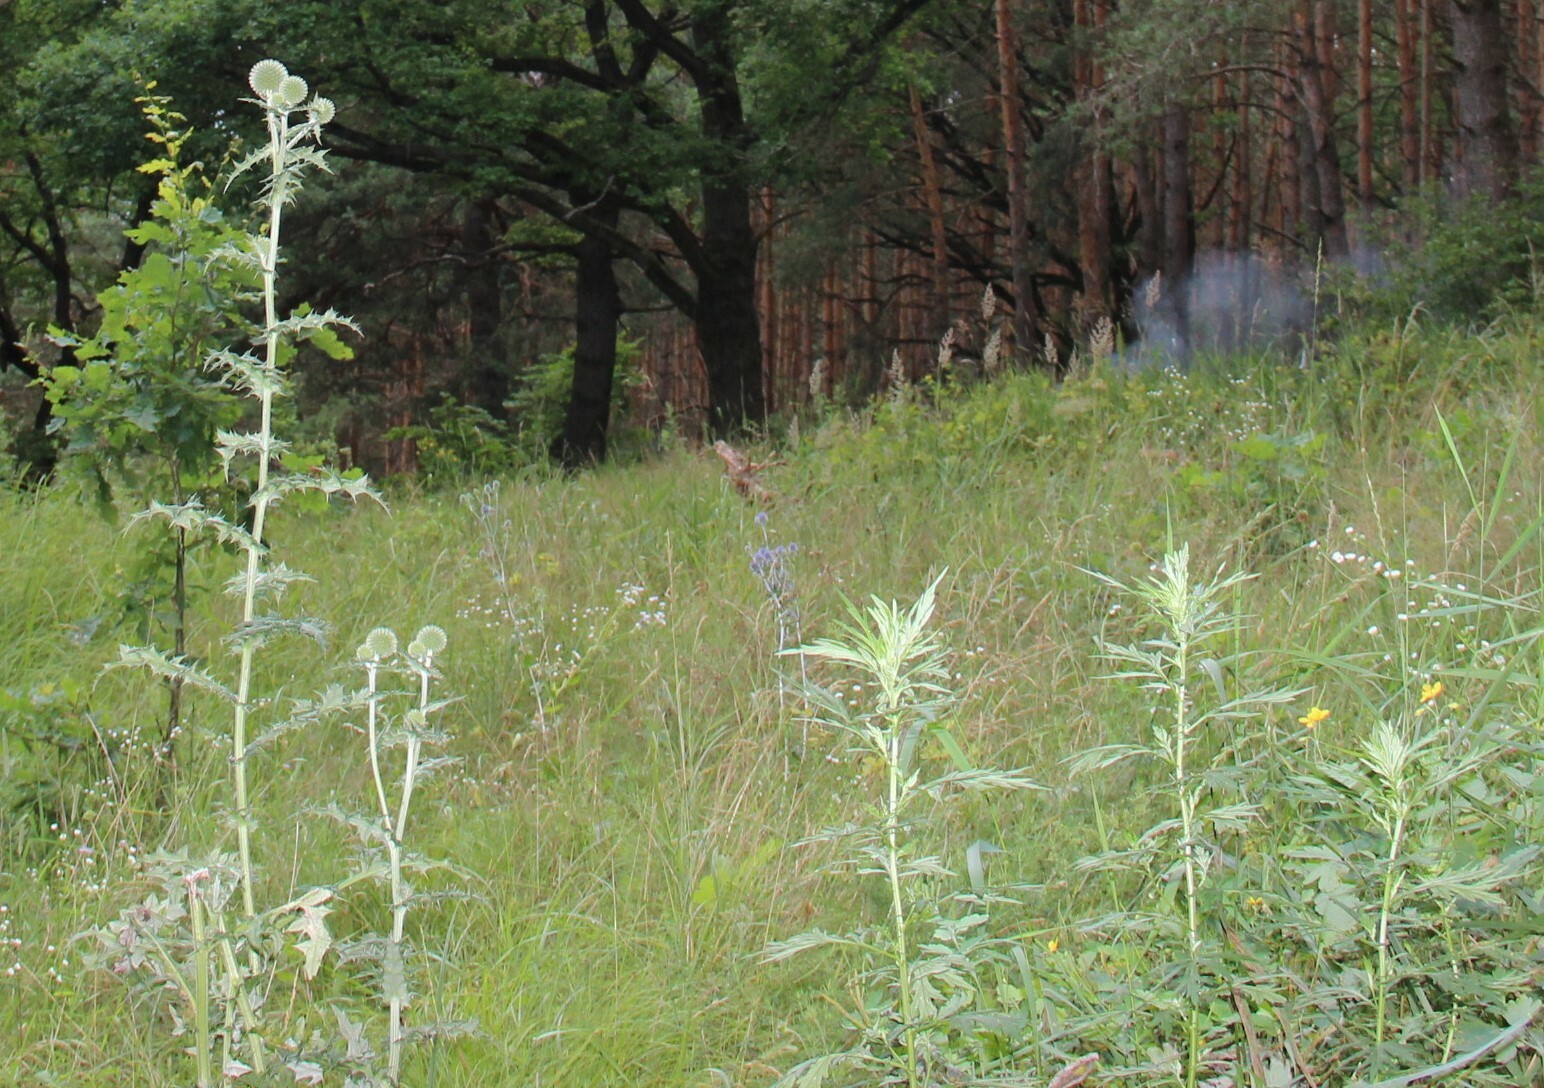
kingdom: Plantae
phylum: Tracheophyta
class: Magnoliopsida
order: Asterales
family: Asteraceae
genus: Echinops
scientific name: Echinops sphaerocephalus
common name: Glandular globe-thistle
